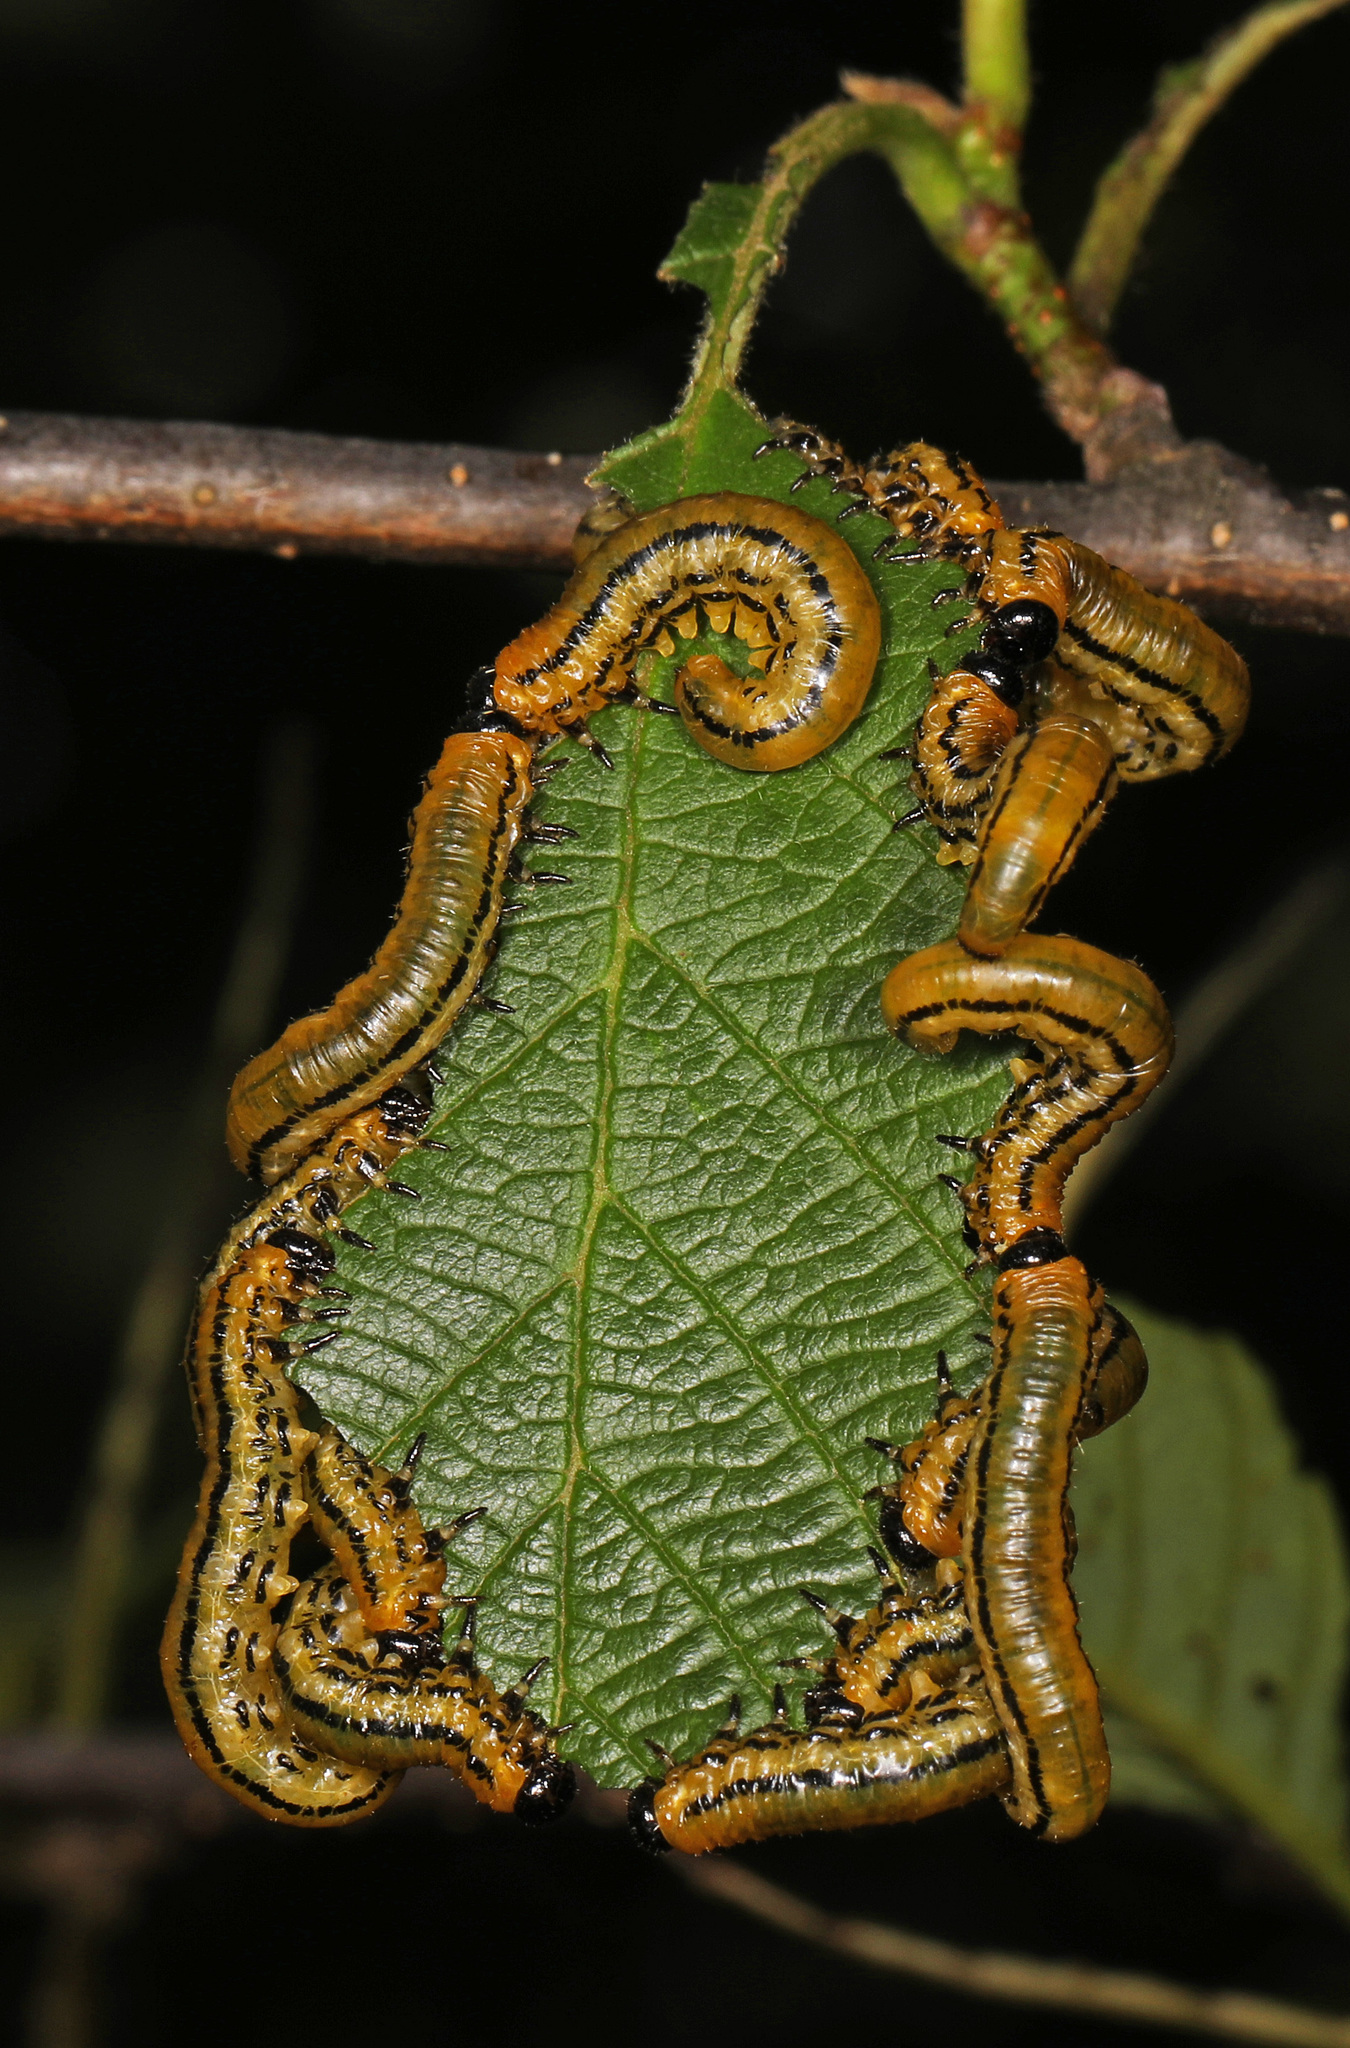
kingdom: Animalia
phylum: Arthropoda
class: Insecta
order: Hymenoptera
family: Tenthredinidae
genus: Hemichroa
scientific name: Hemichroa crocea
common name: Striped alder sawfly
